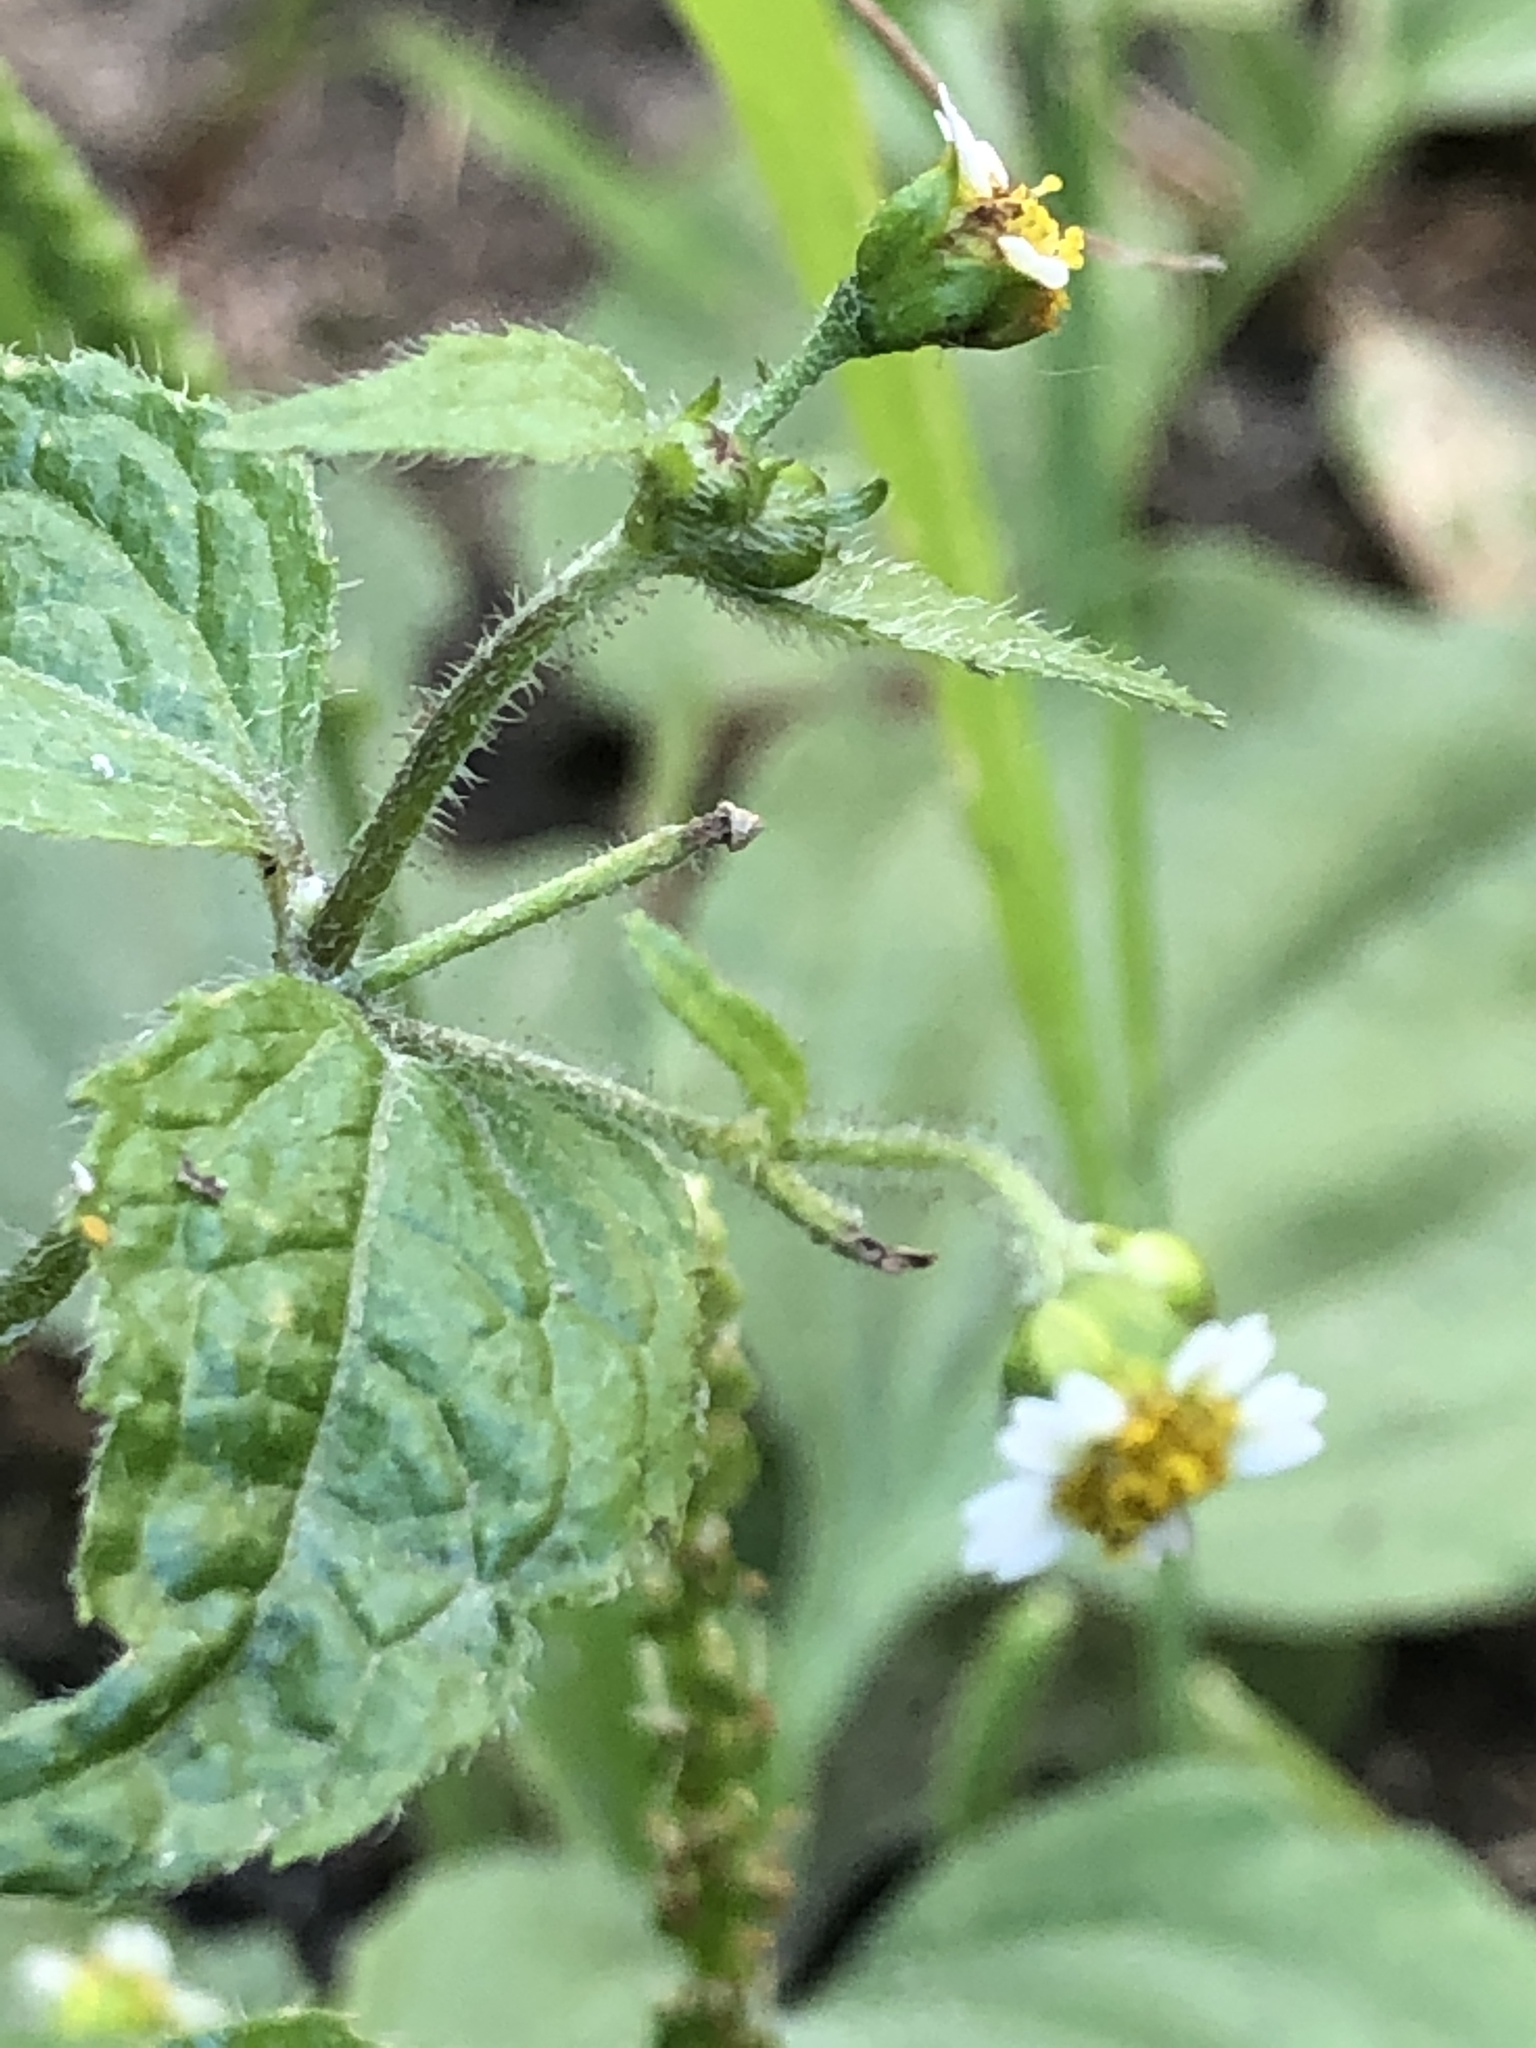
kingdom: Plantae
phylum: Tracheophyta
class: Magnoliopsida
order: Asterales
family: Asteraceae
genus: Galinsoga
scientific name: Galinsoga quadriradiata
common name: Shaggy soldier
